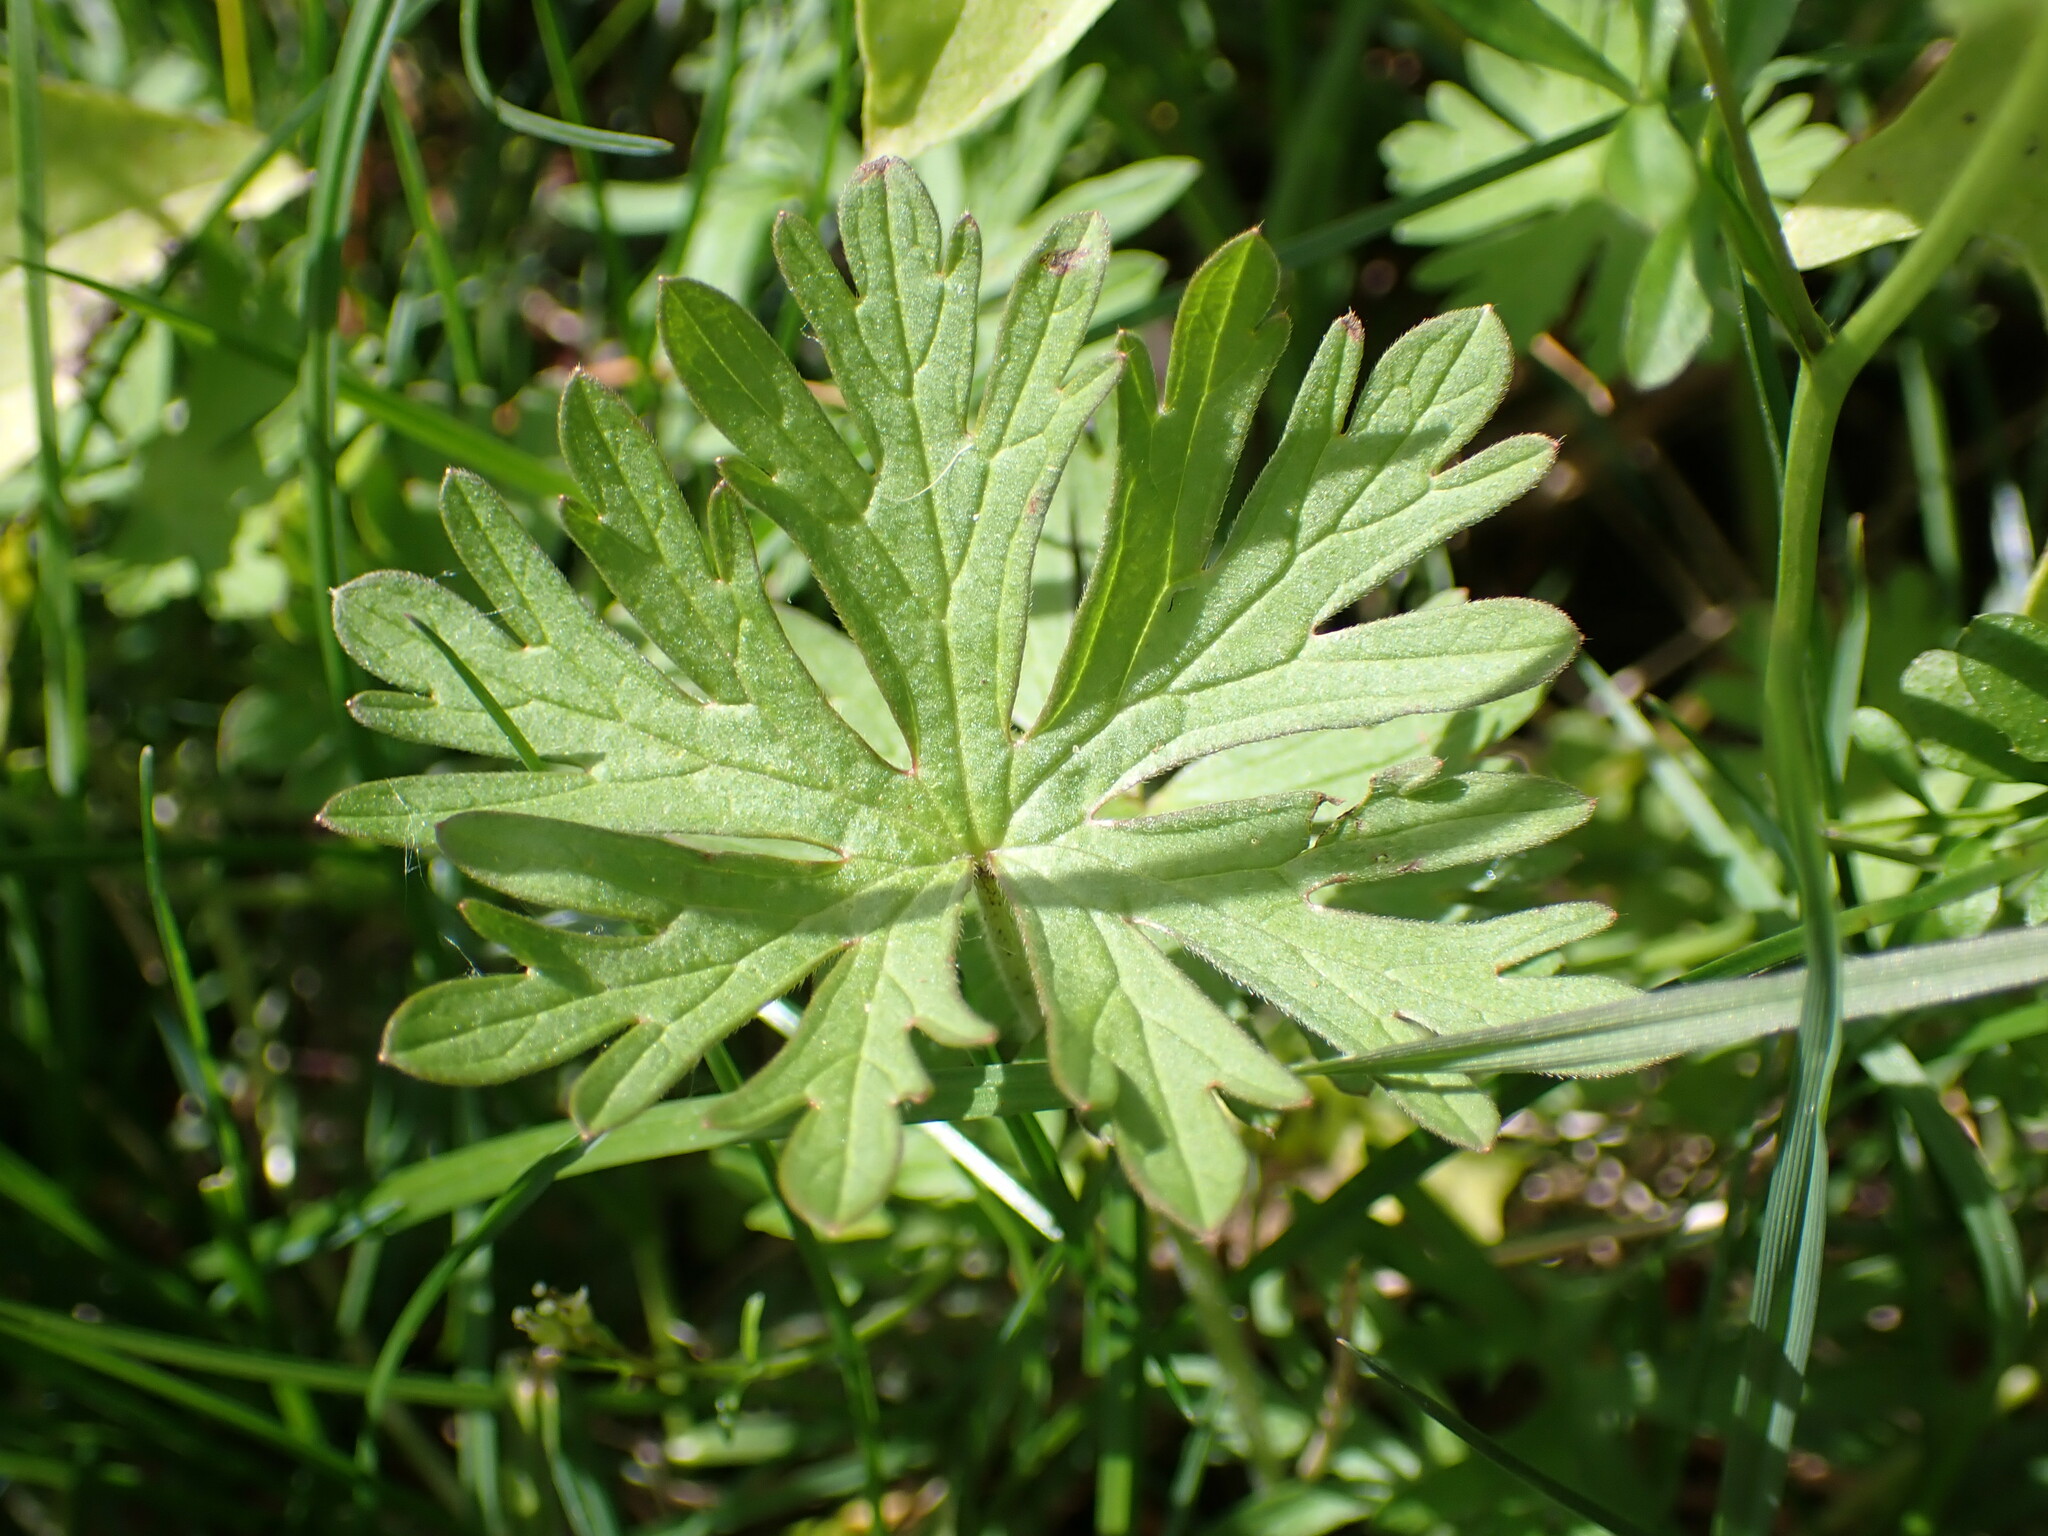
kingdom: Plantae
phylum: Tracheophyta
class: Magnoliopsida
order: Geraniales
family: Geraniaceae
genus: Geranium
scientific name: Geranium carolinianum
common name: Carolina crane's-bill
